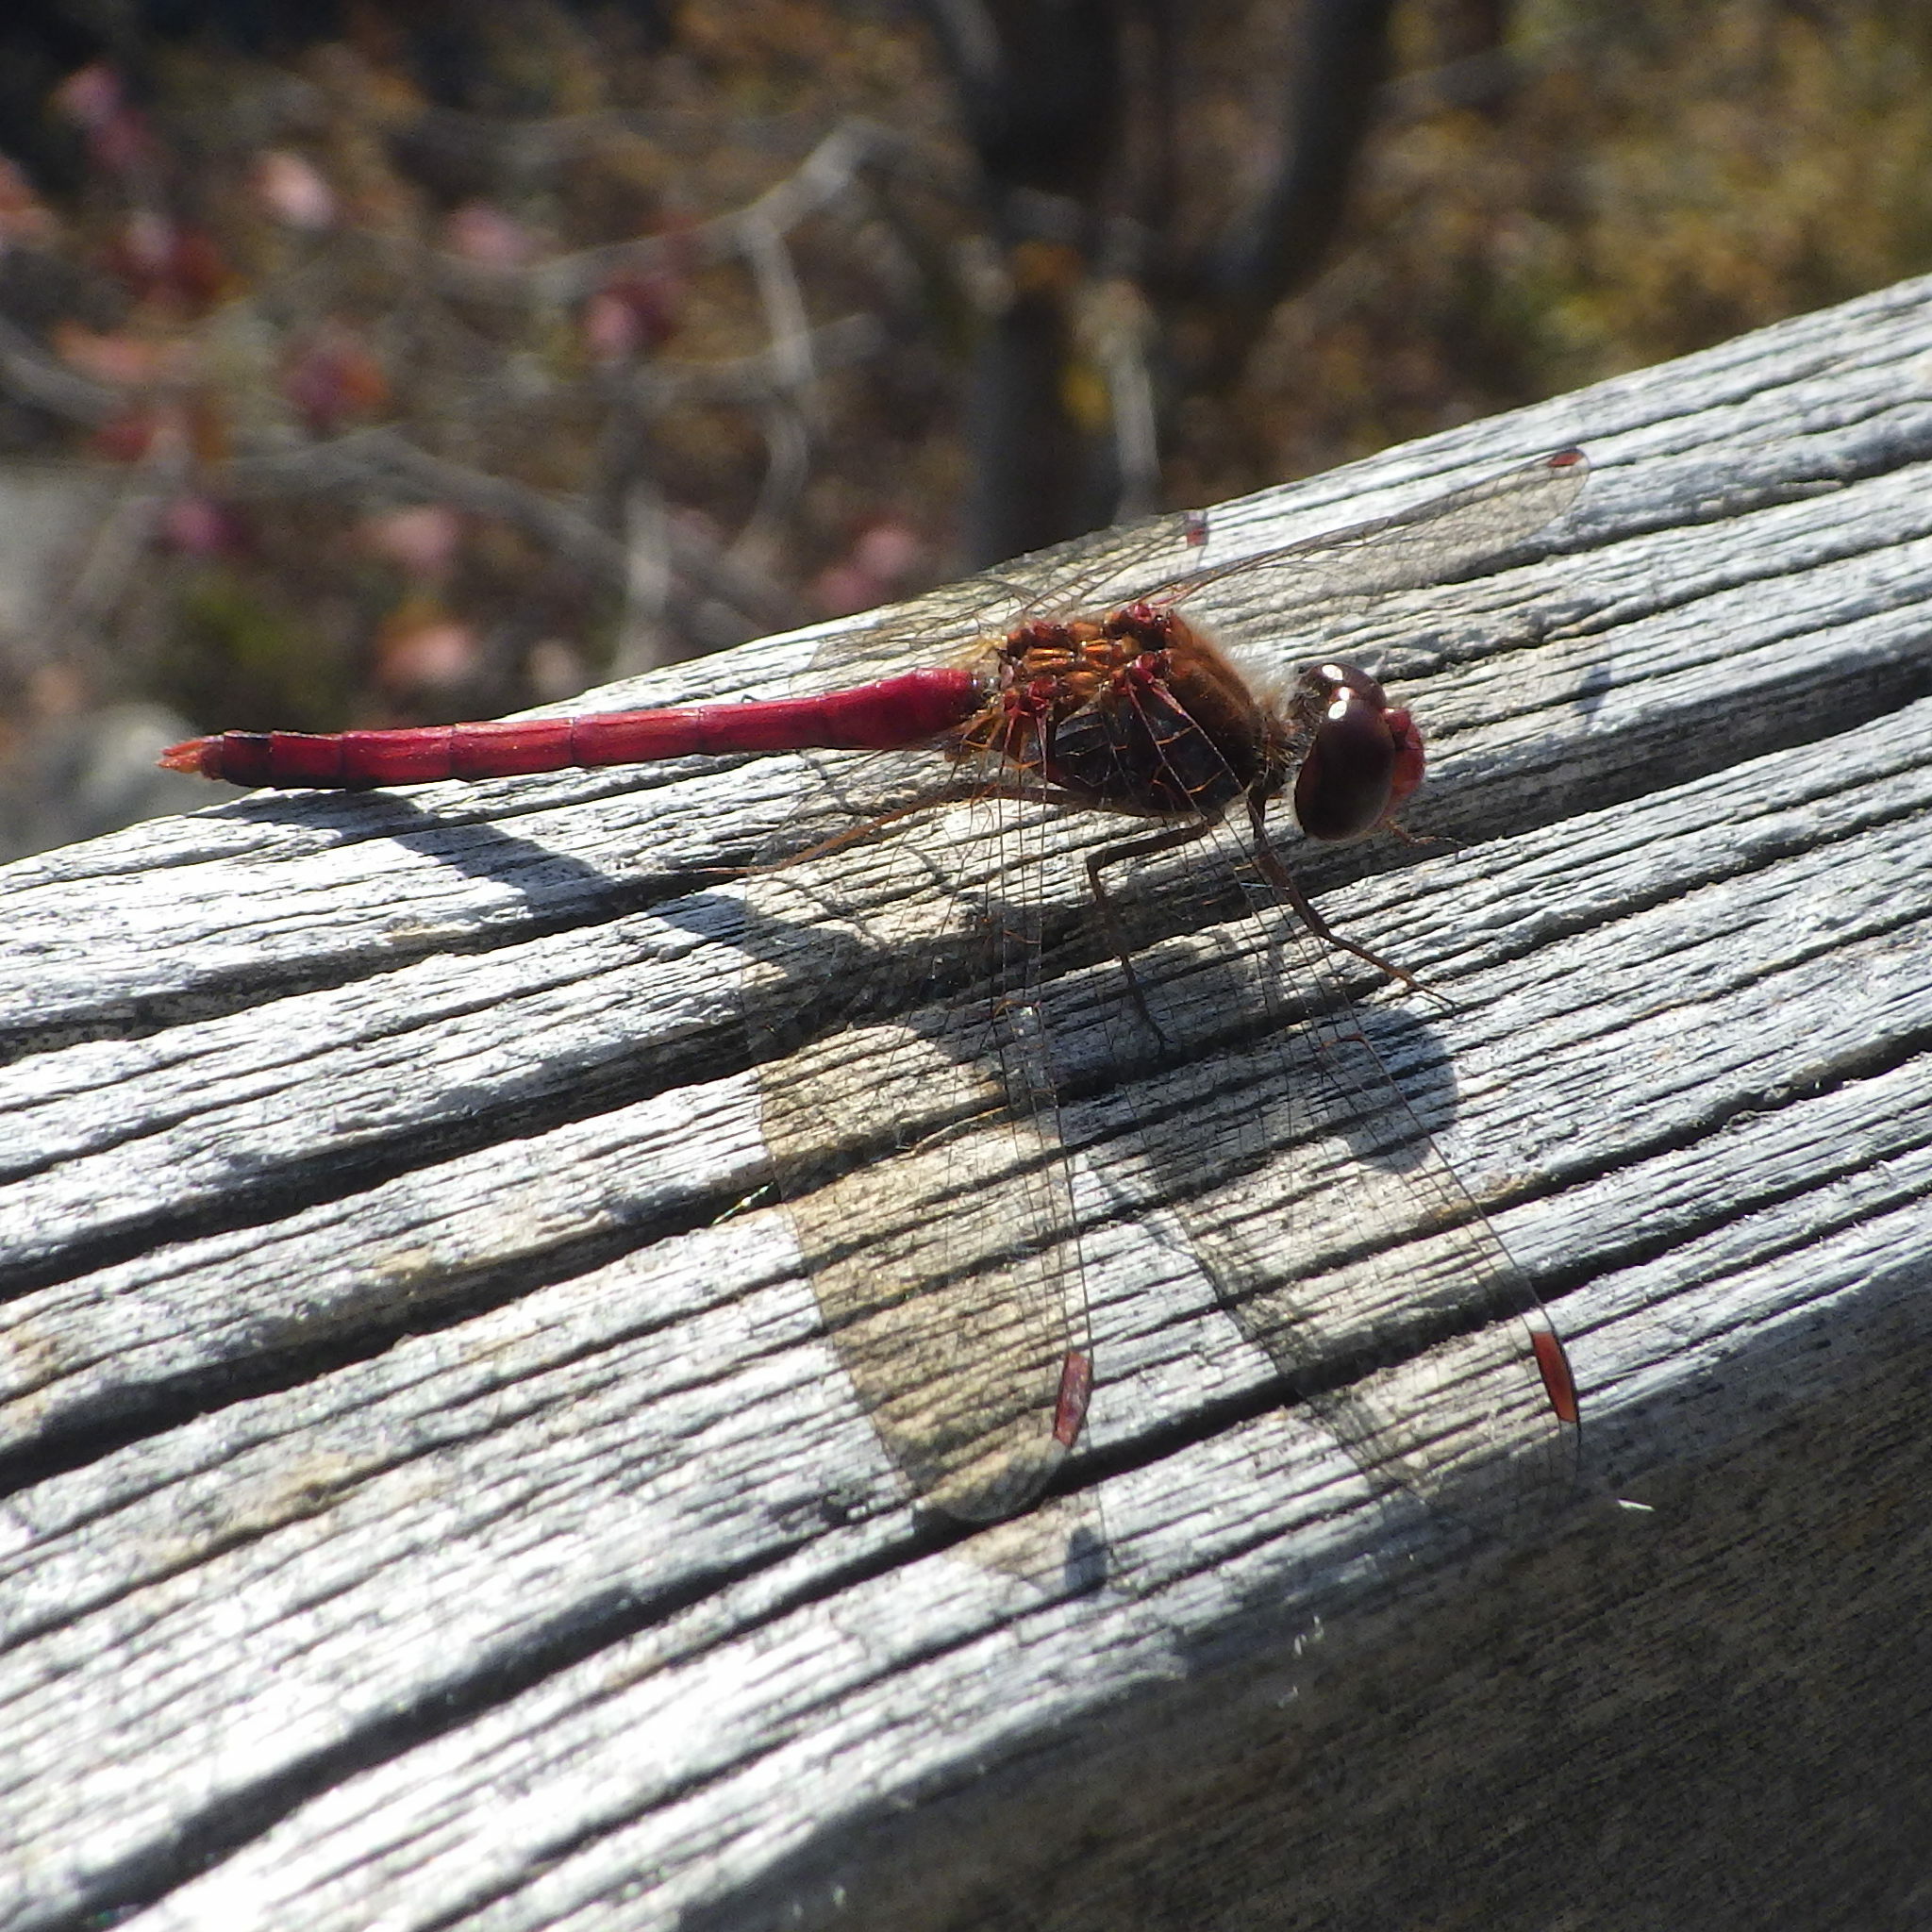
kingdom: Animalia
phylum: Arthropoda
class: Insecta
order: Odonata
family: Libellulidae
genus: Sympetrum
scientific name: Sympetrum vicinum
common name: Autumn meadowhawk
